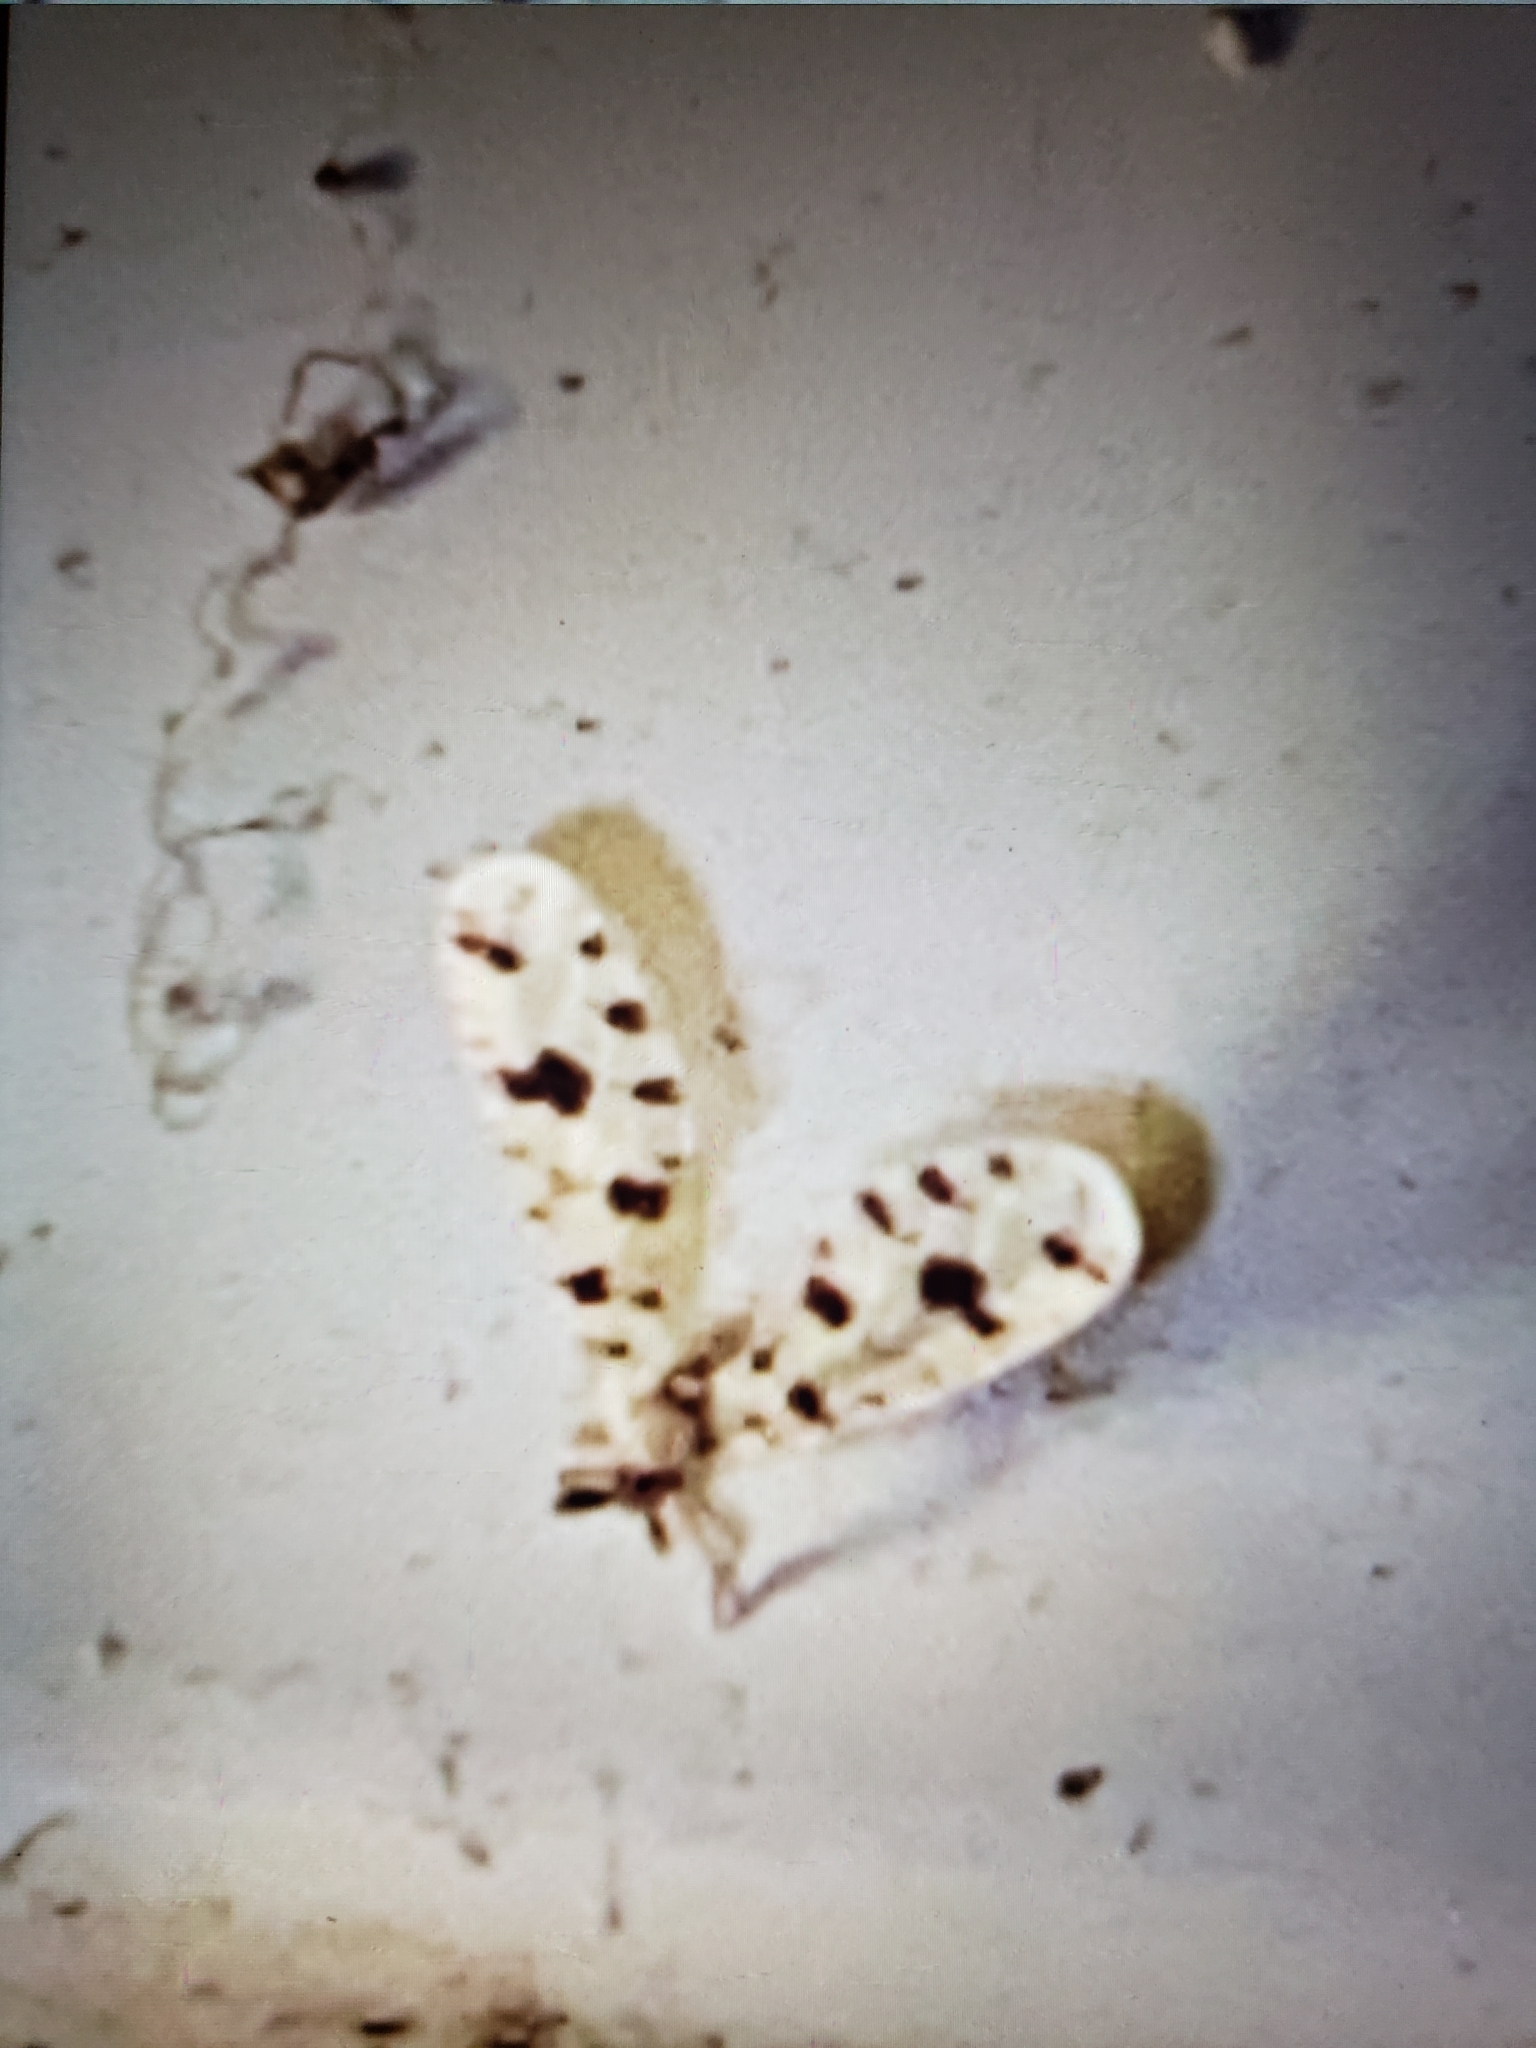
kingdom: Animalia
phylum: Arthropoda
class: Insecta
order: Hemiptera
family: Derbidae
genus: Sikaiana
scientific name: Sikaiana harti
